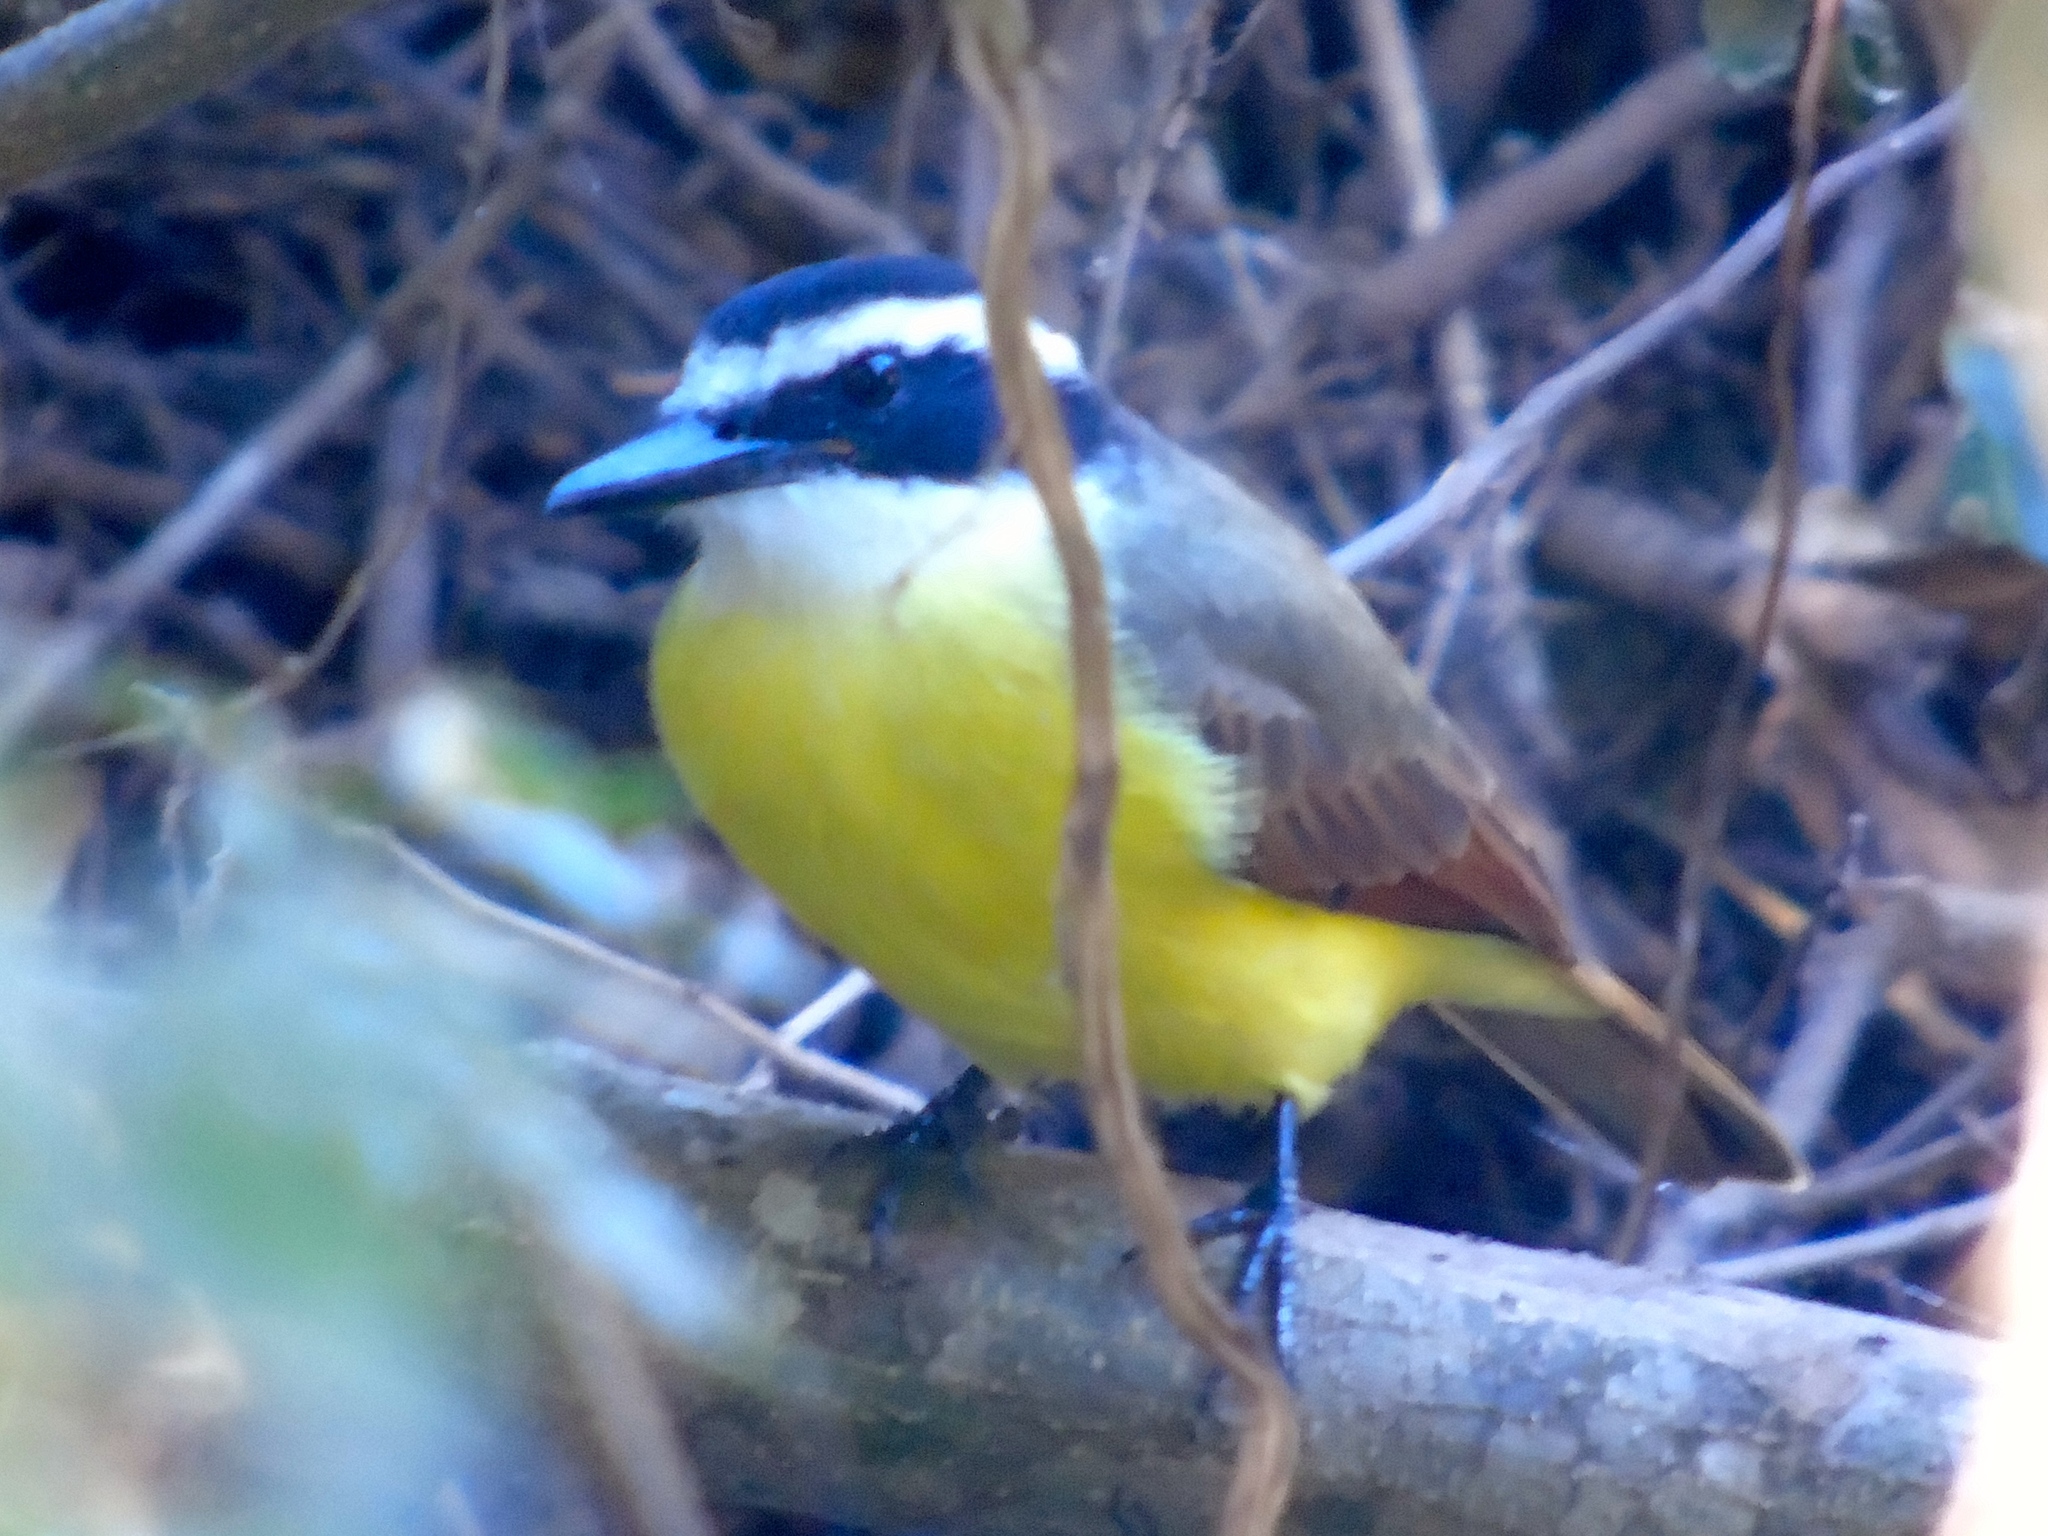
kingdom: Animalia
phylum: Chordata
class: Aves
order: Passeriformes
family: Tyrannidae
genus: Pitangus
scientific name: Pitangus sulphuratus
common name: Great kiskadee
